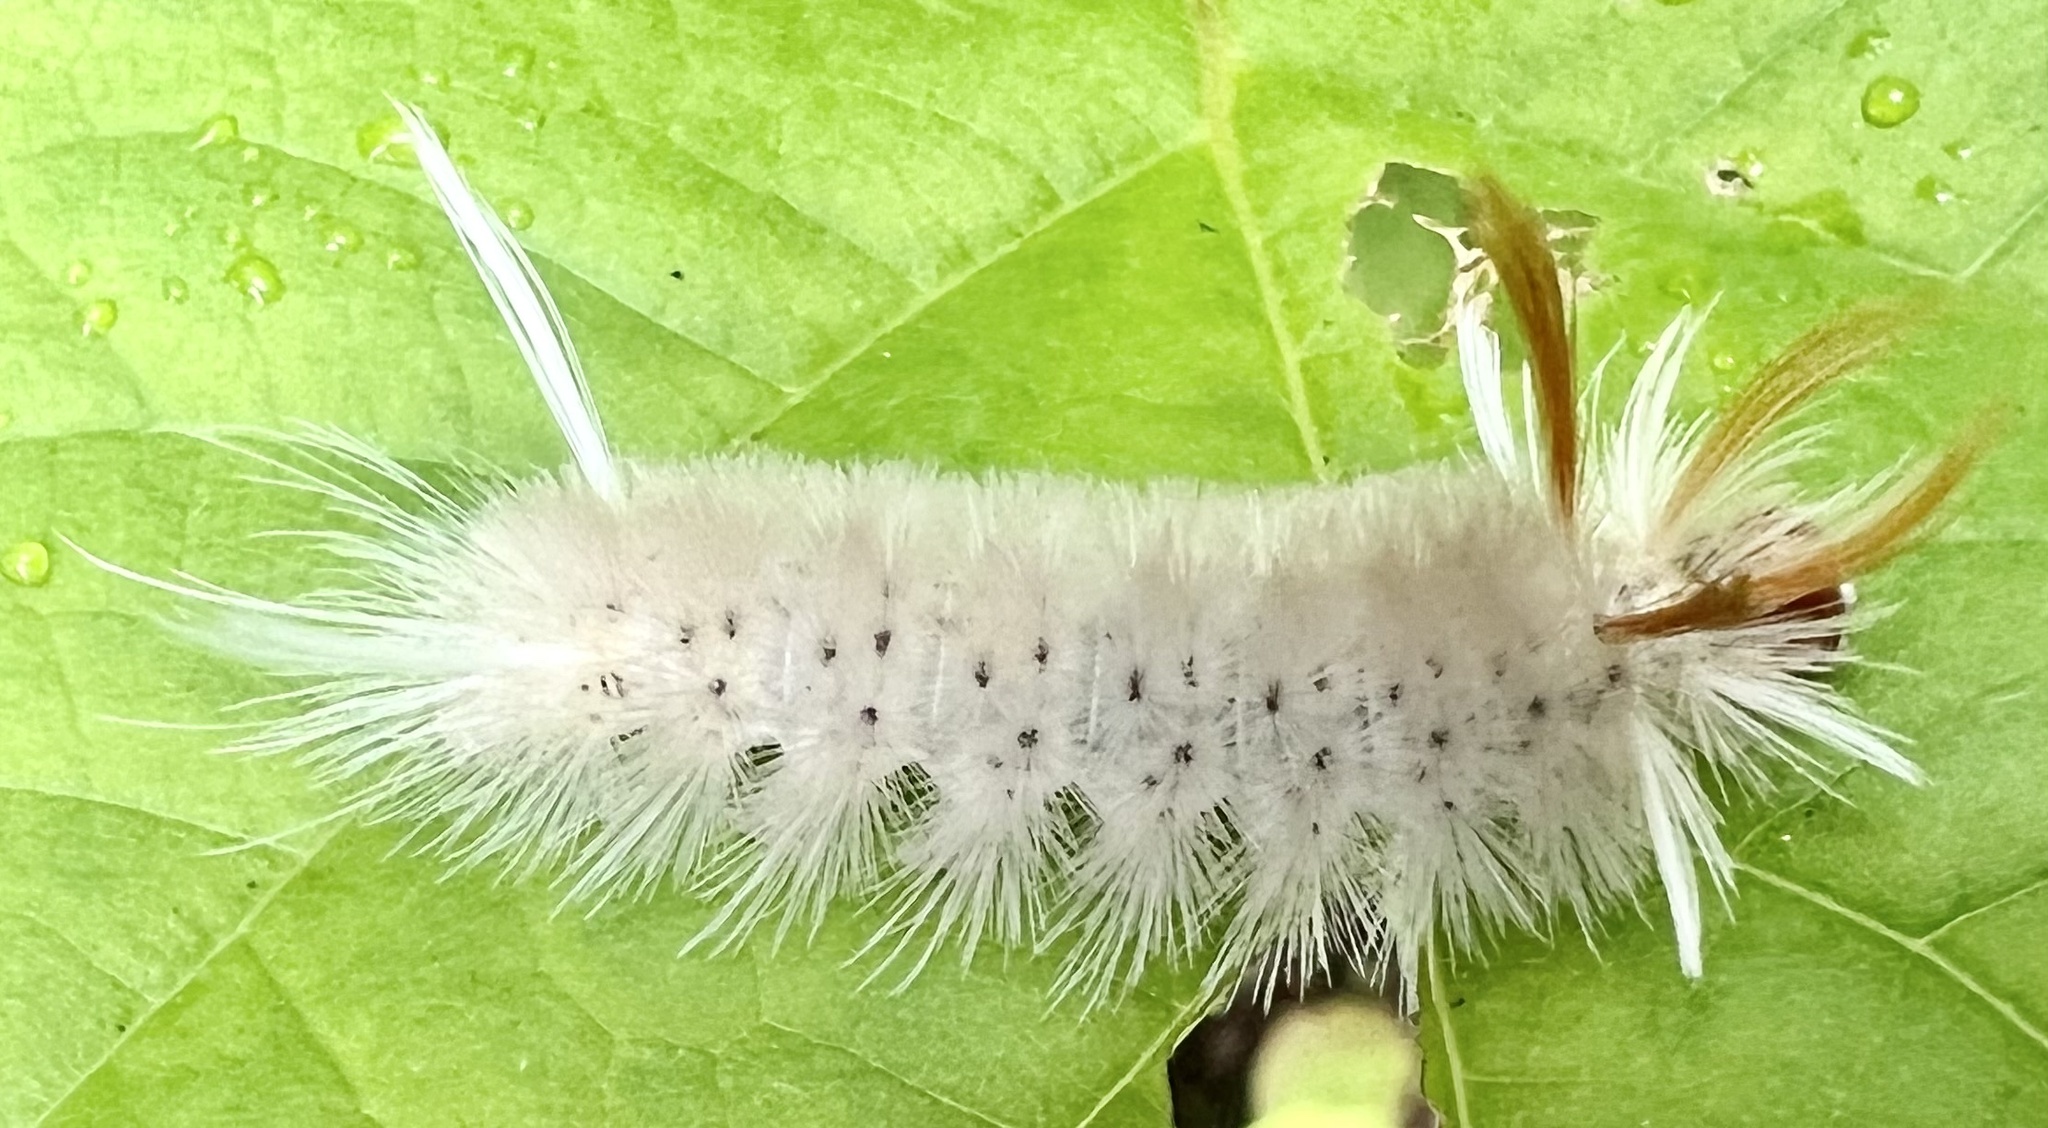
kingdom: Animalia
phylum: Arthropoda
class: Insecta
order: Lepidoptera
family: Erebidae
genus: Halysidota
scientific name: Halysidota harrisii
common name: Sycamore tussock moth
